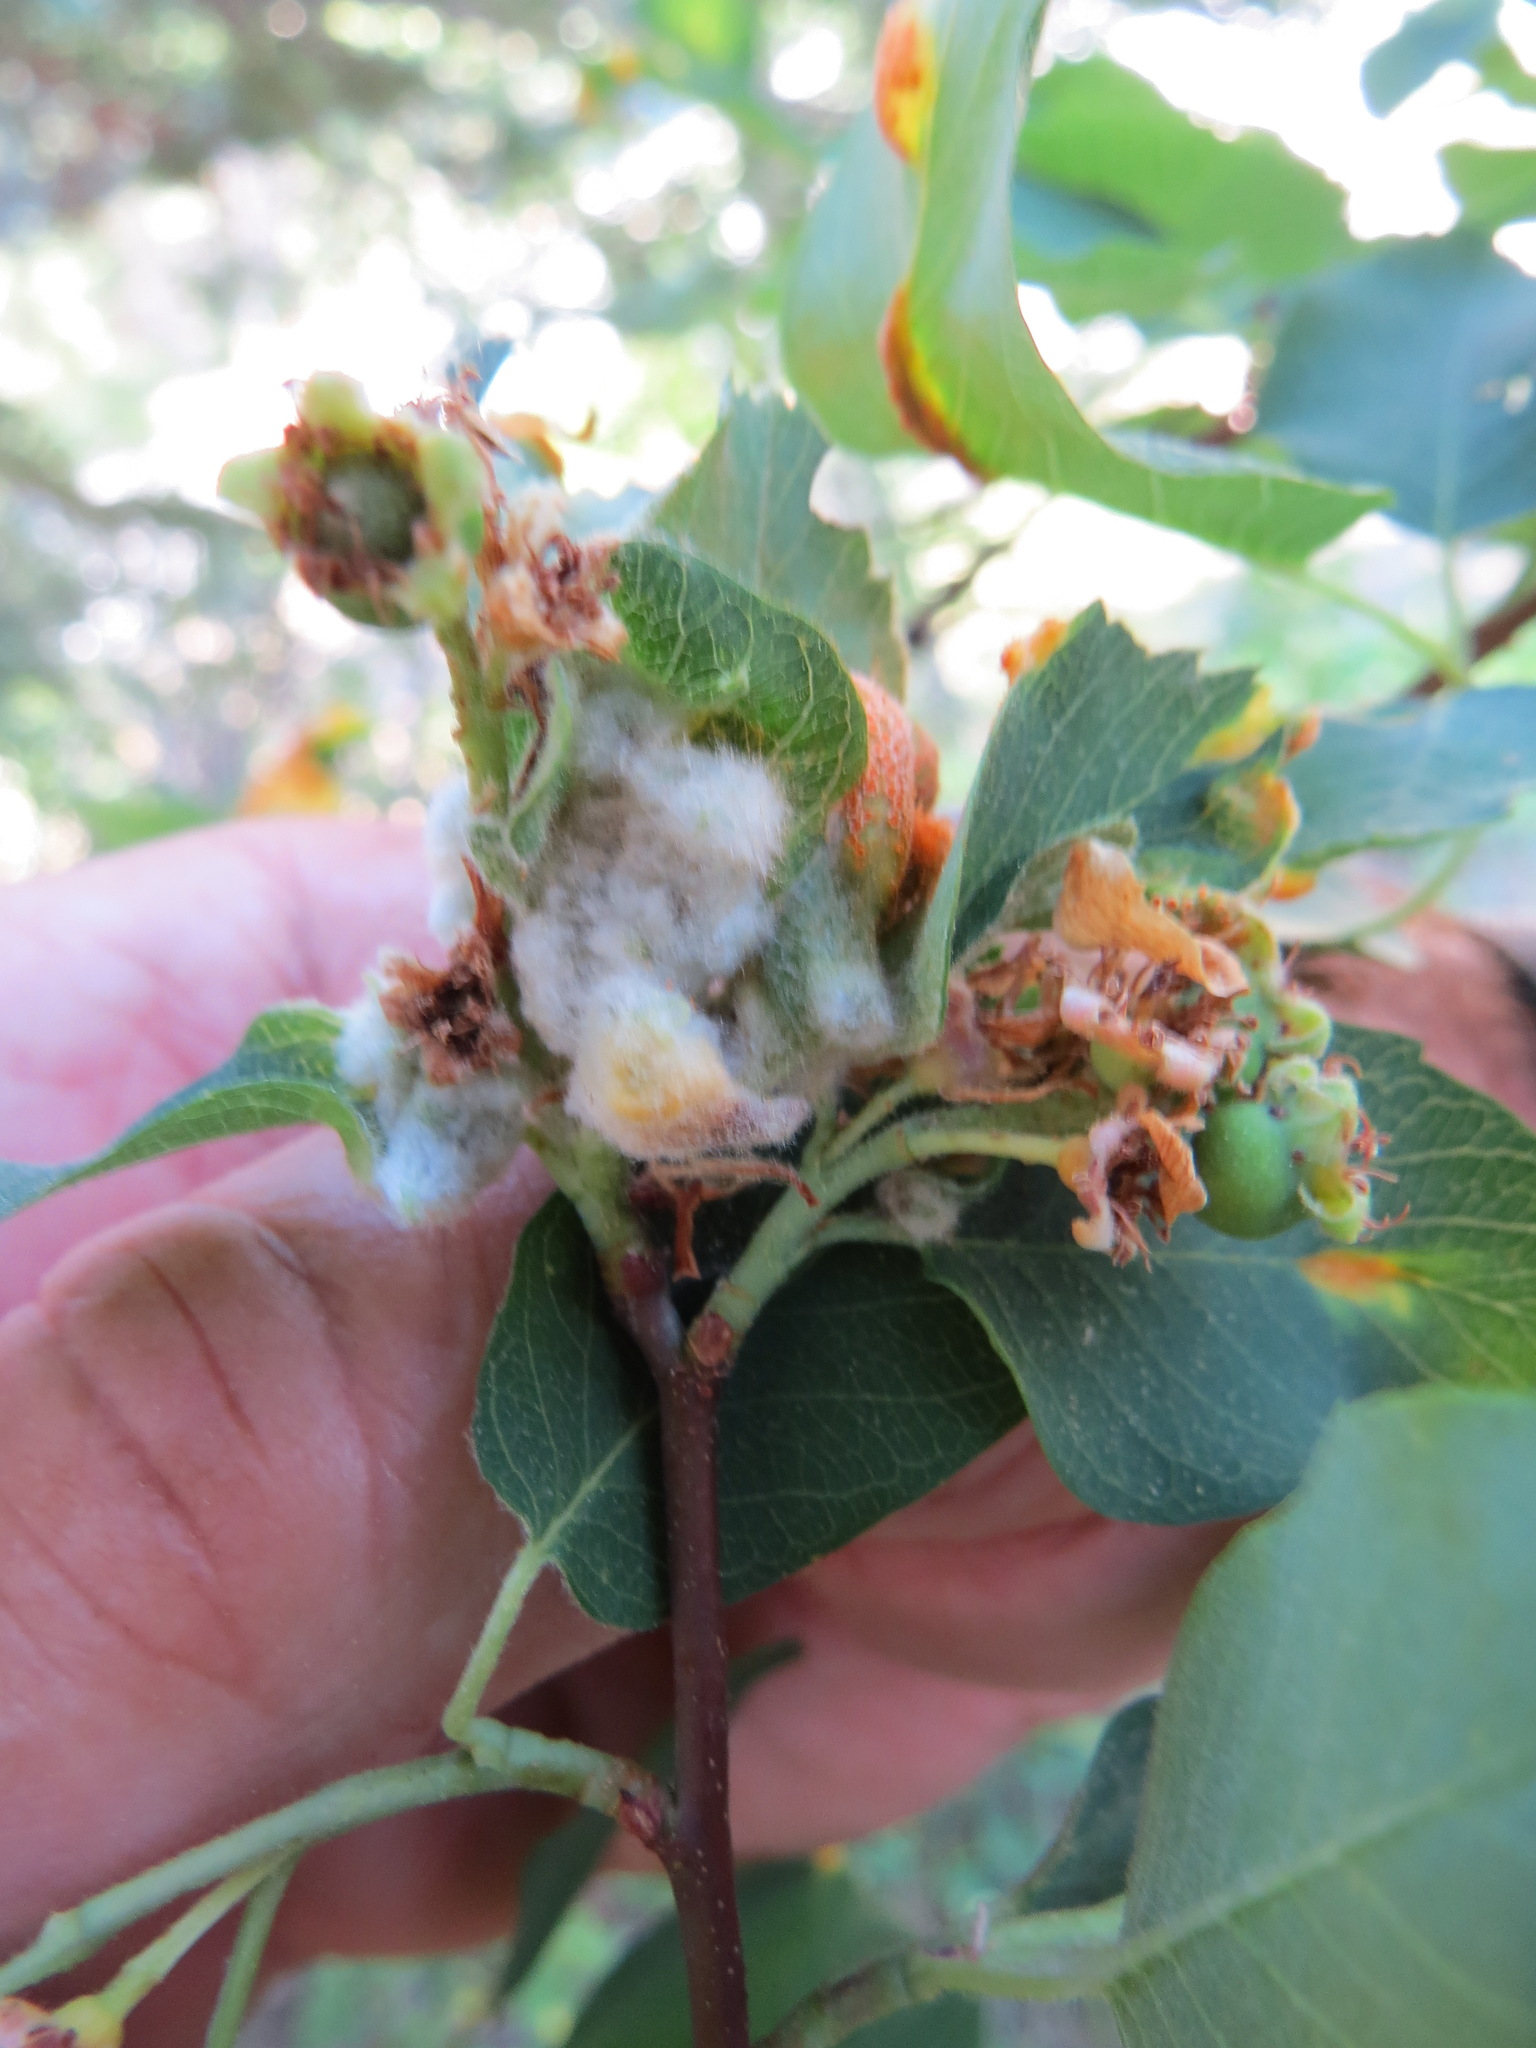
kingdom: Animalia
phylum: Arthropoda
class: Insecta
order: Diptera
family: Cecidomyiidae
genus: Blaesodiplosis
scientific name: Blaesodiplosis canadensis
